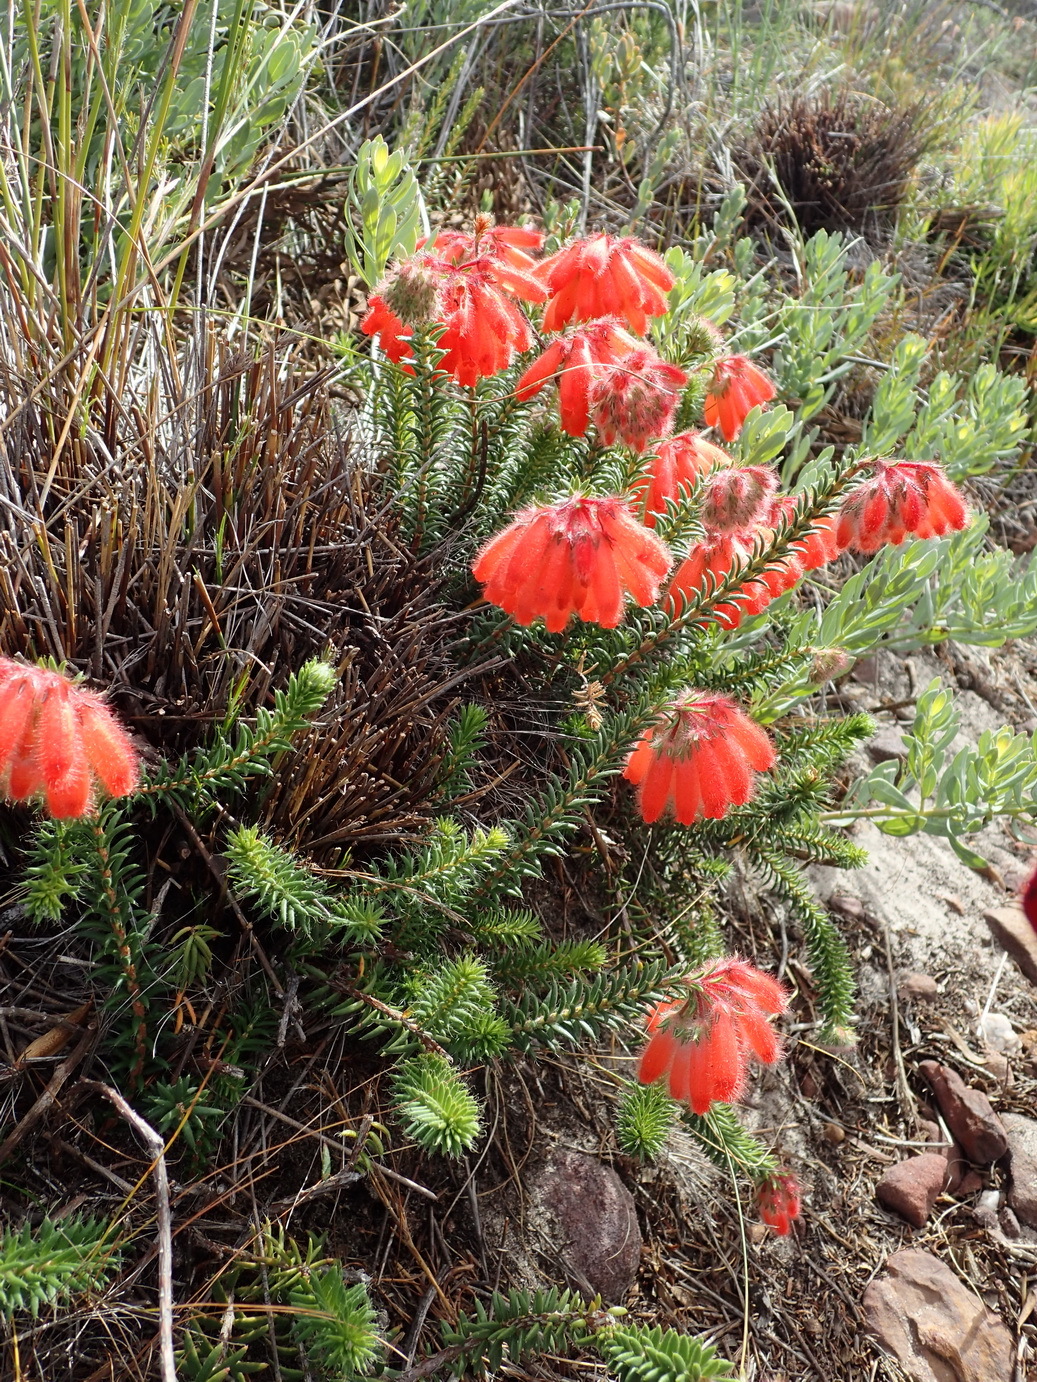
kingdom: Plantae
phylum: Tracheophyta
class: Magnoliopsida
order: Ericales
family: Ericaceae
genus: Erica
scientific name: Erica cerinthoides
